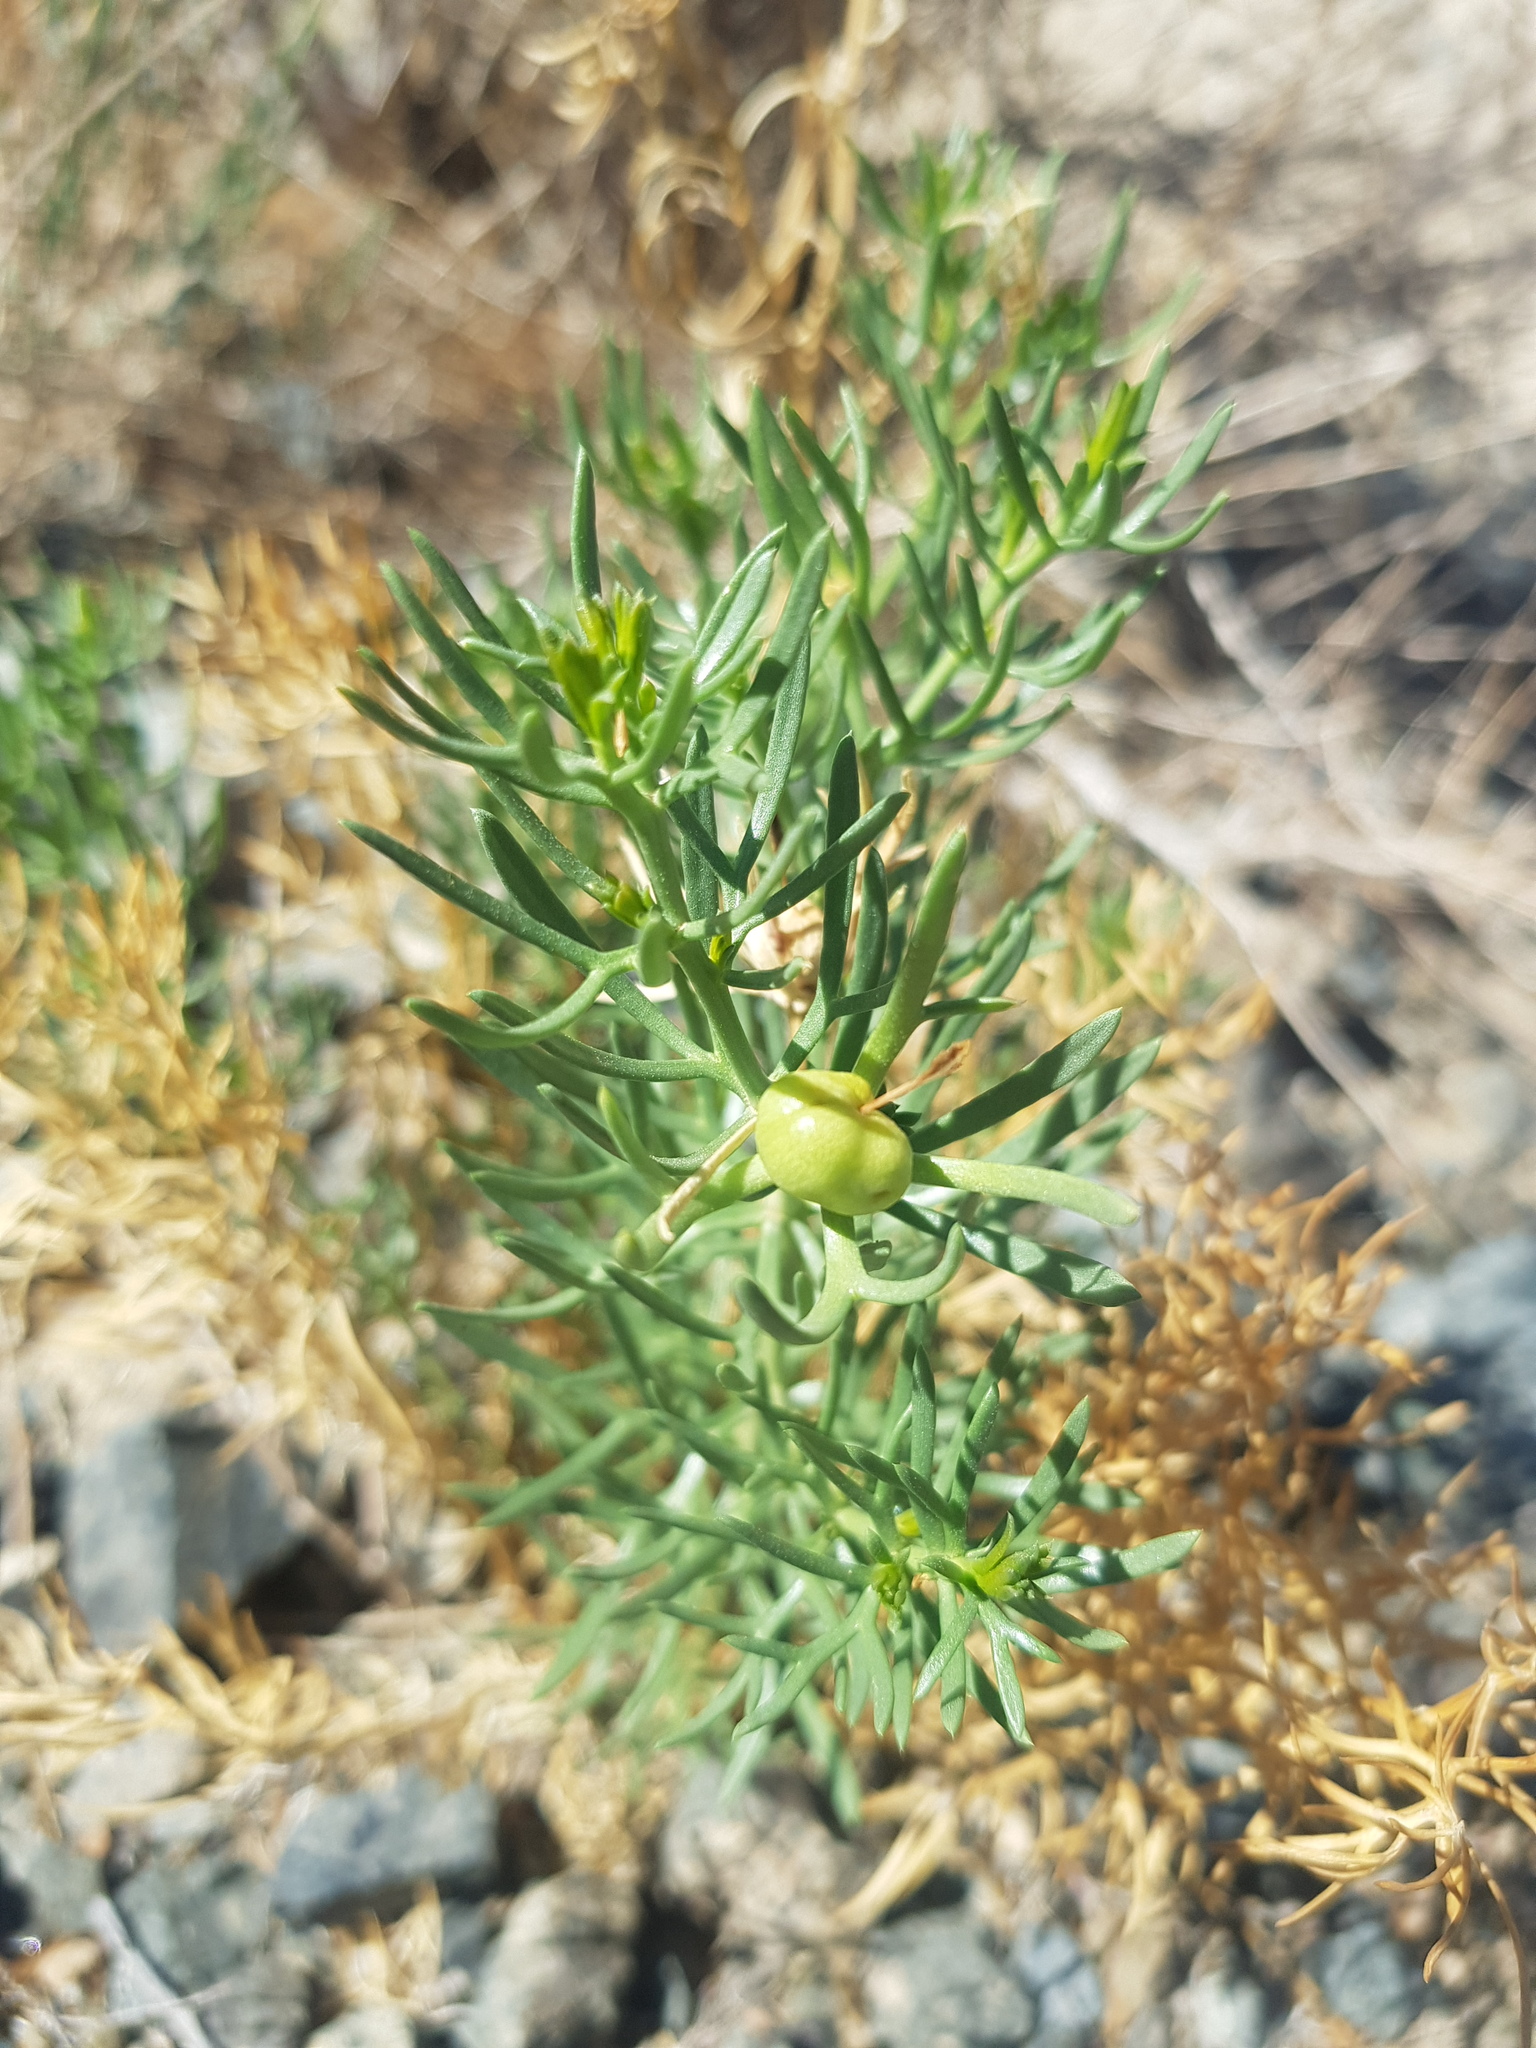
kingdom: Plantae
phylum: Tracheophyta
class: Magnoliopsida
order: Sapindales
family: Tetradiclidaceae
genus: Peganum
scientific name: Peganum harmala
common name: Harmal peganum
